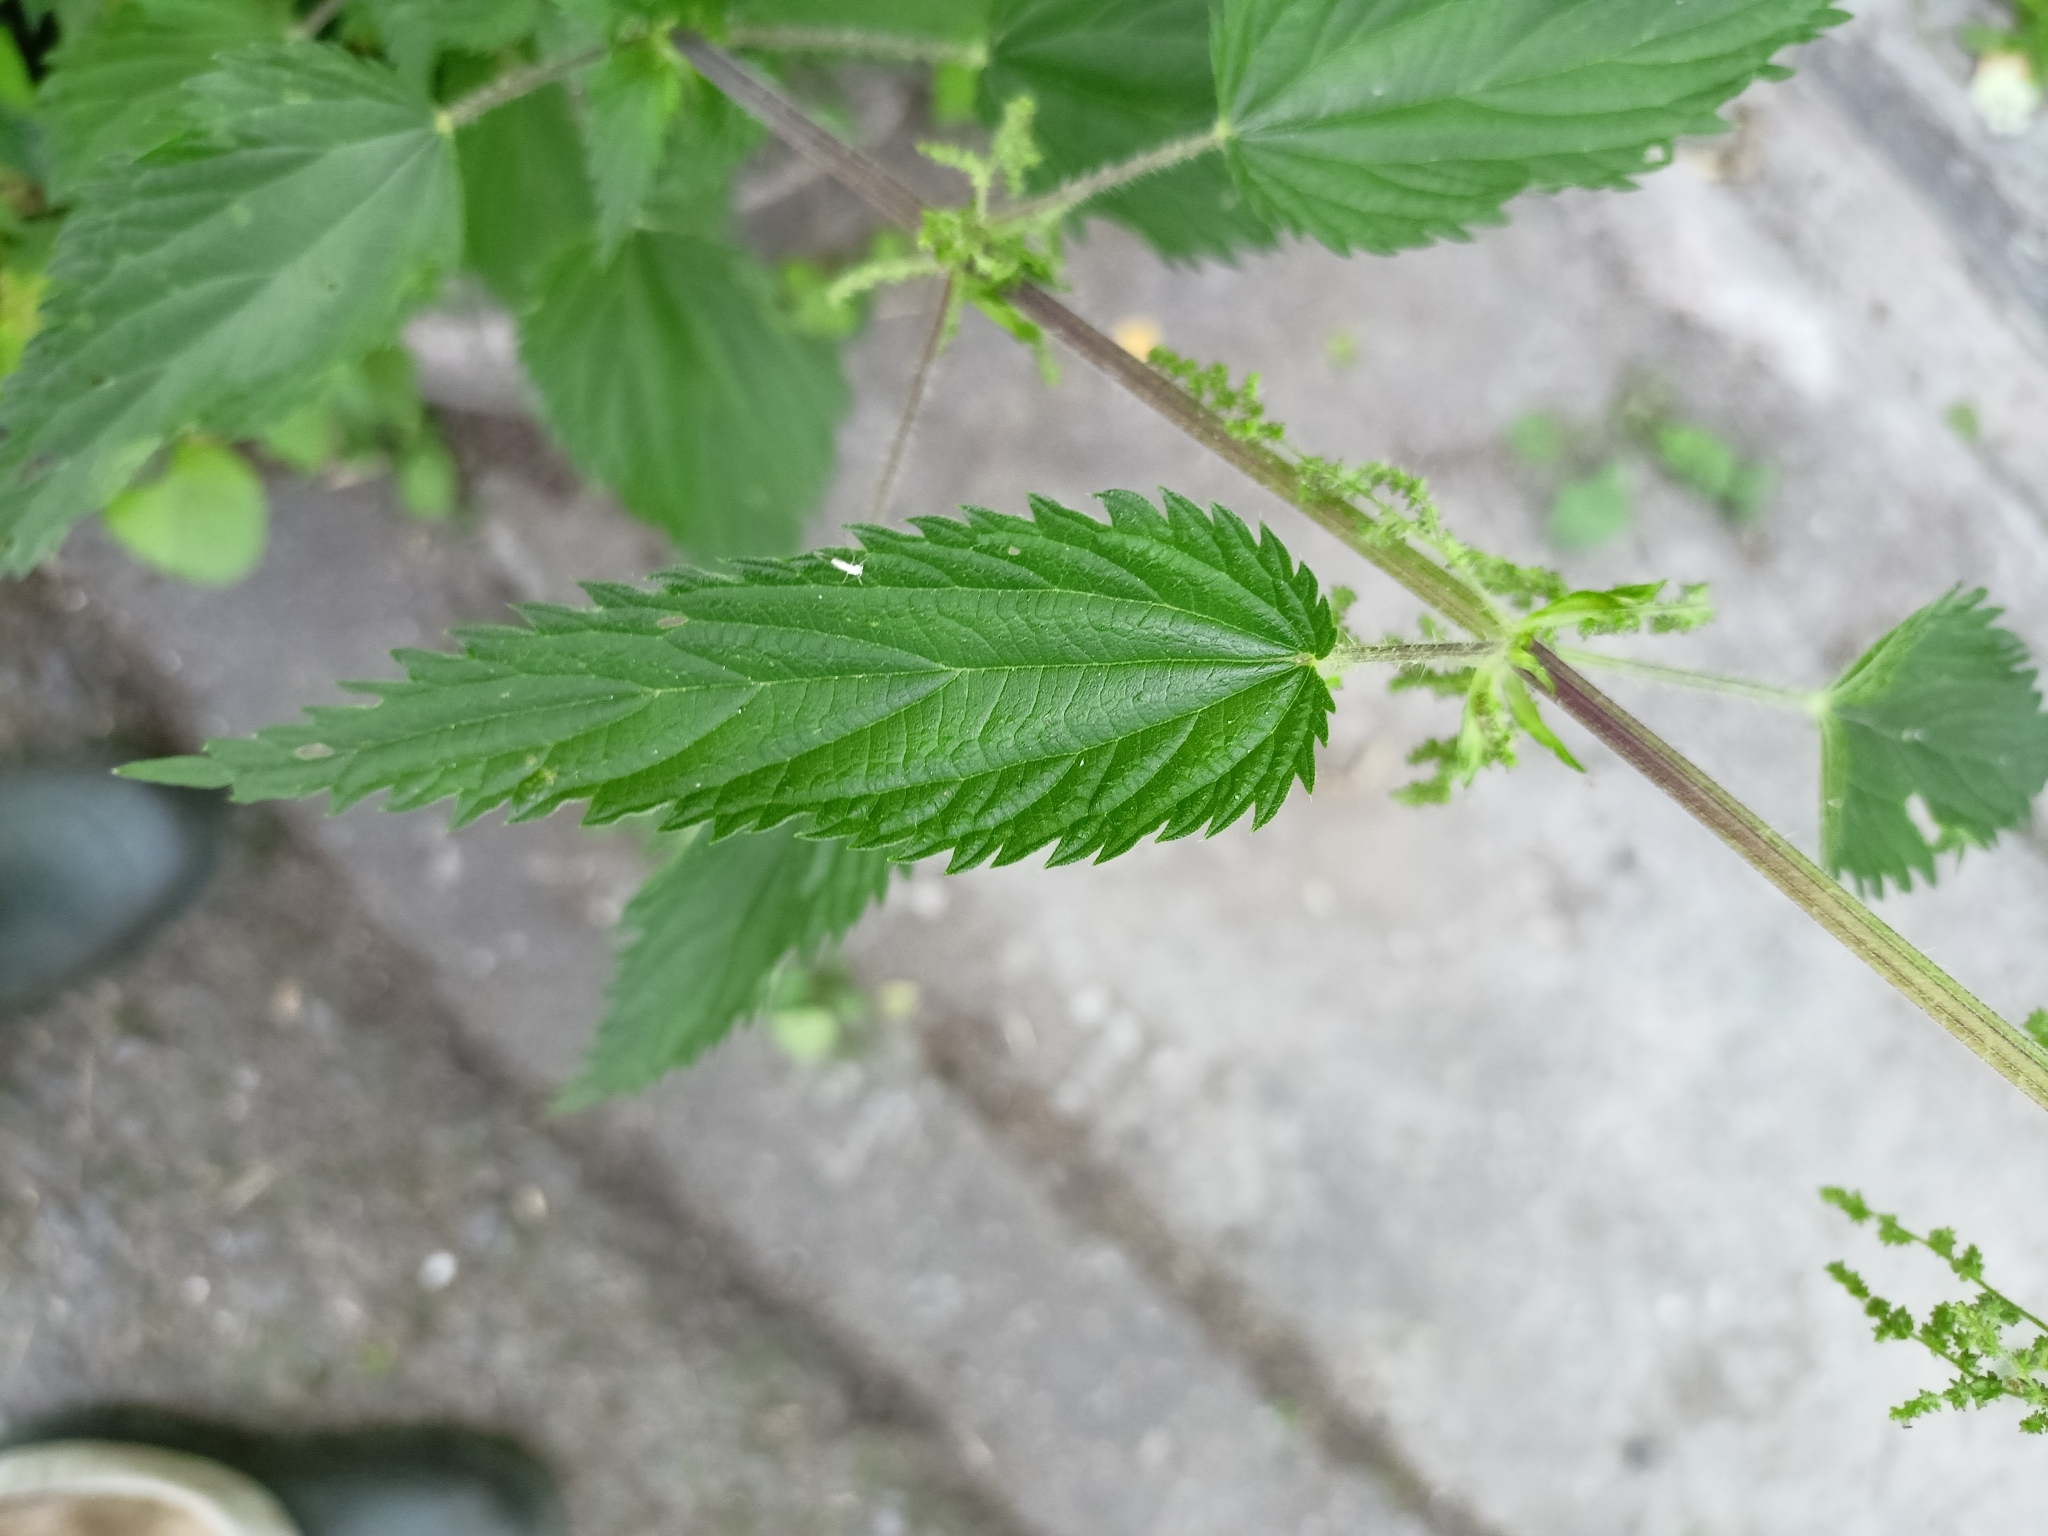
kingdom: Plantae
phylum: Tracheophyta
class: Magnoliopsida
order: Rosales
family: Urticaceae
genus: Urtica
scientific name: Urtica dioica
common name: Common nettle
